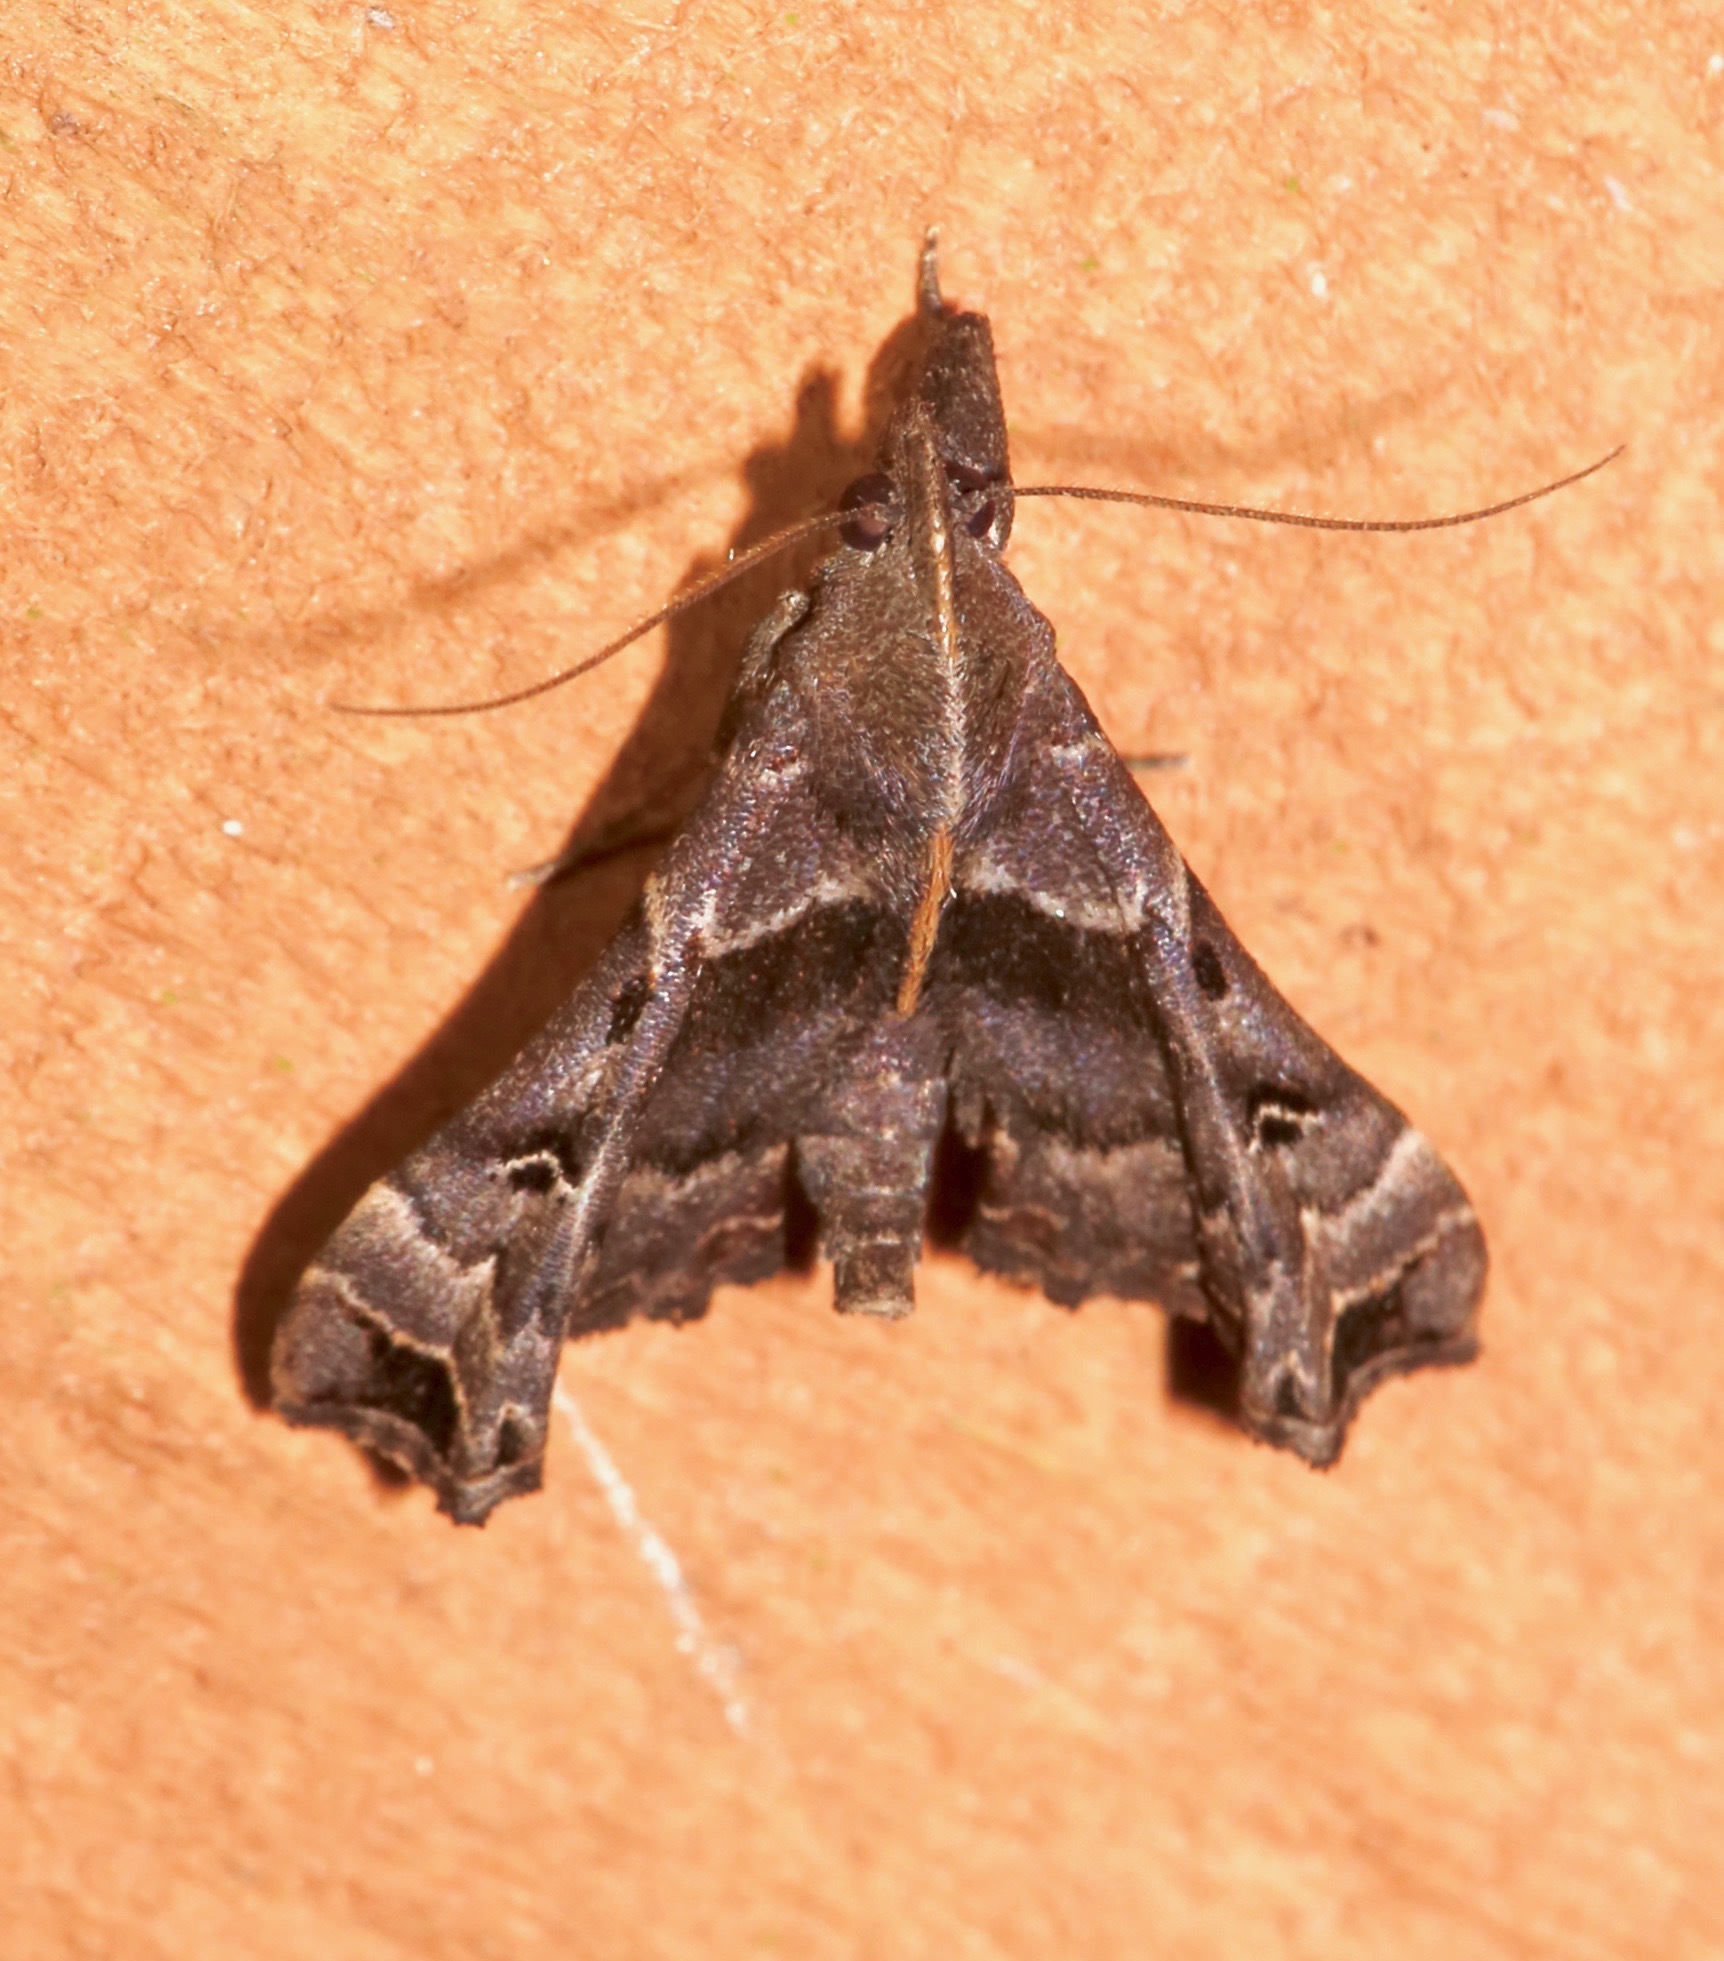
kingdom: Animalia
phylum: Arthropoda
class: Insecta
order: Lepidoptera
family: Erebidae
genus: Palthis
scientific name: Palthis asopialis
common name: Faint-spotted palthis moth
